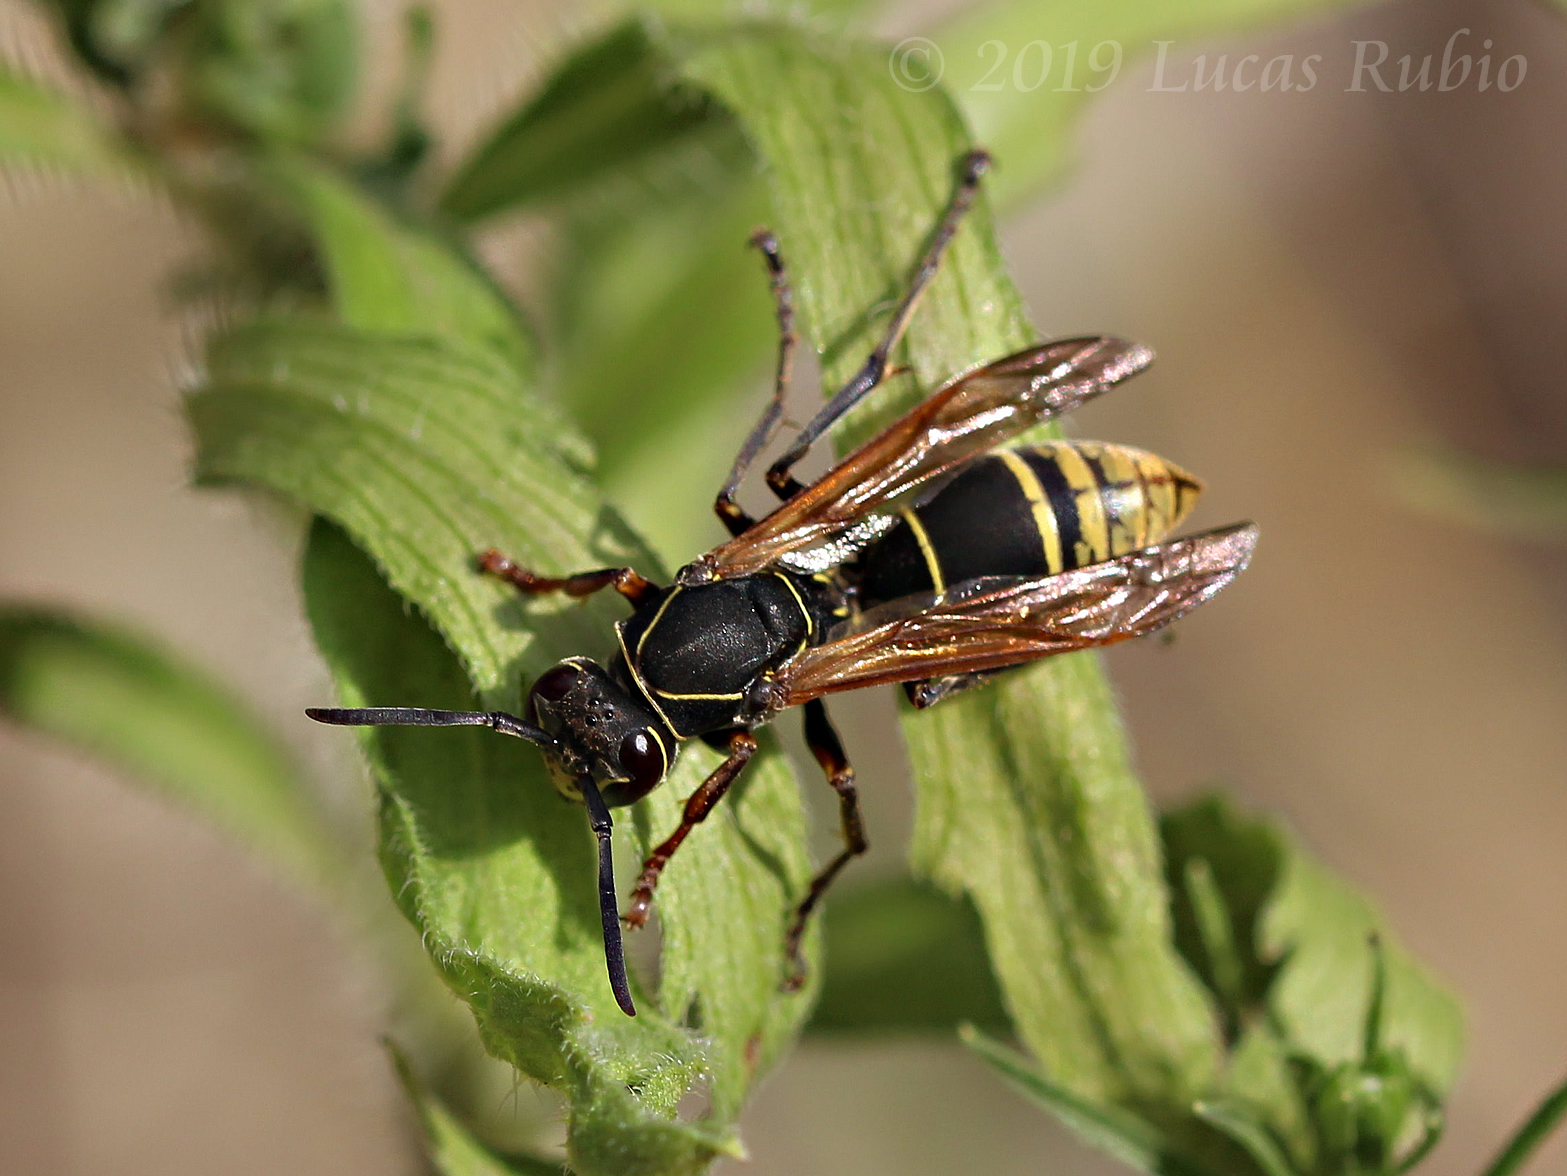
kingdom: Animalia
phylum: Arthropoda
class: Insecta
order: Hymenoptera
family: Eumenidae
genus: Polistes
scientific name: Polistes cinerascens
